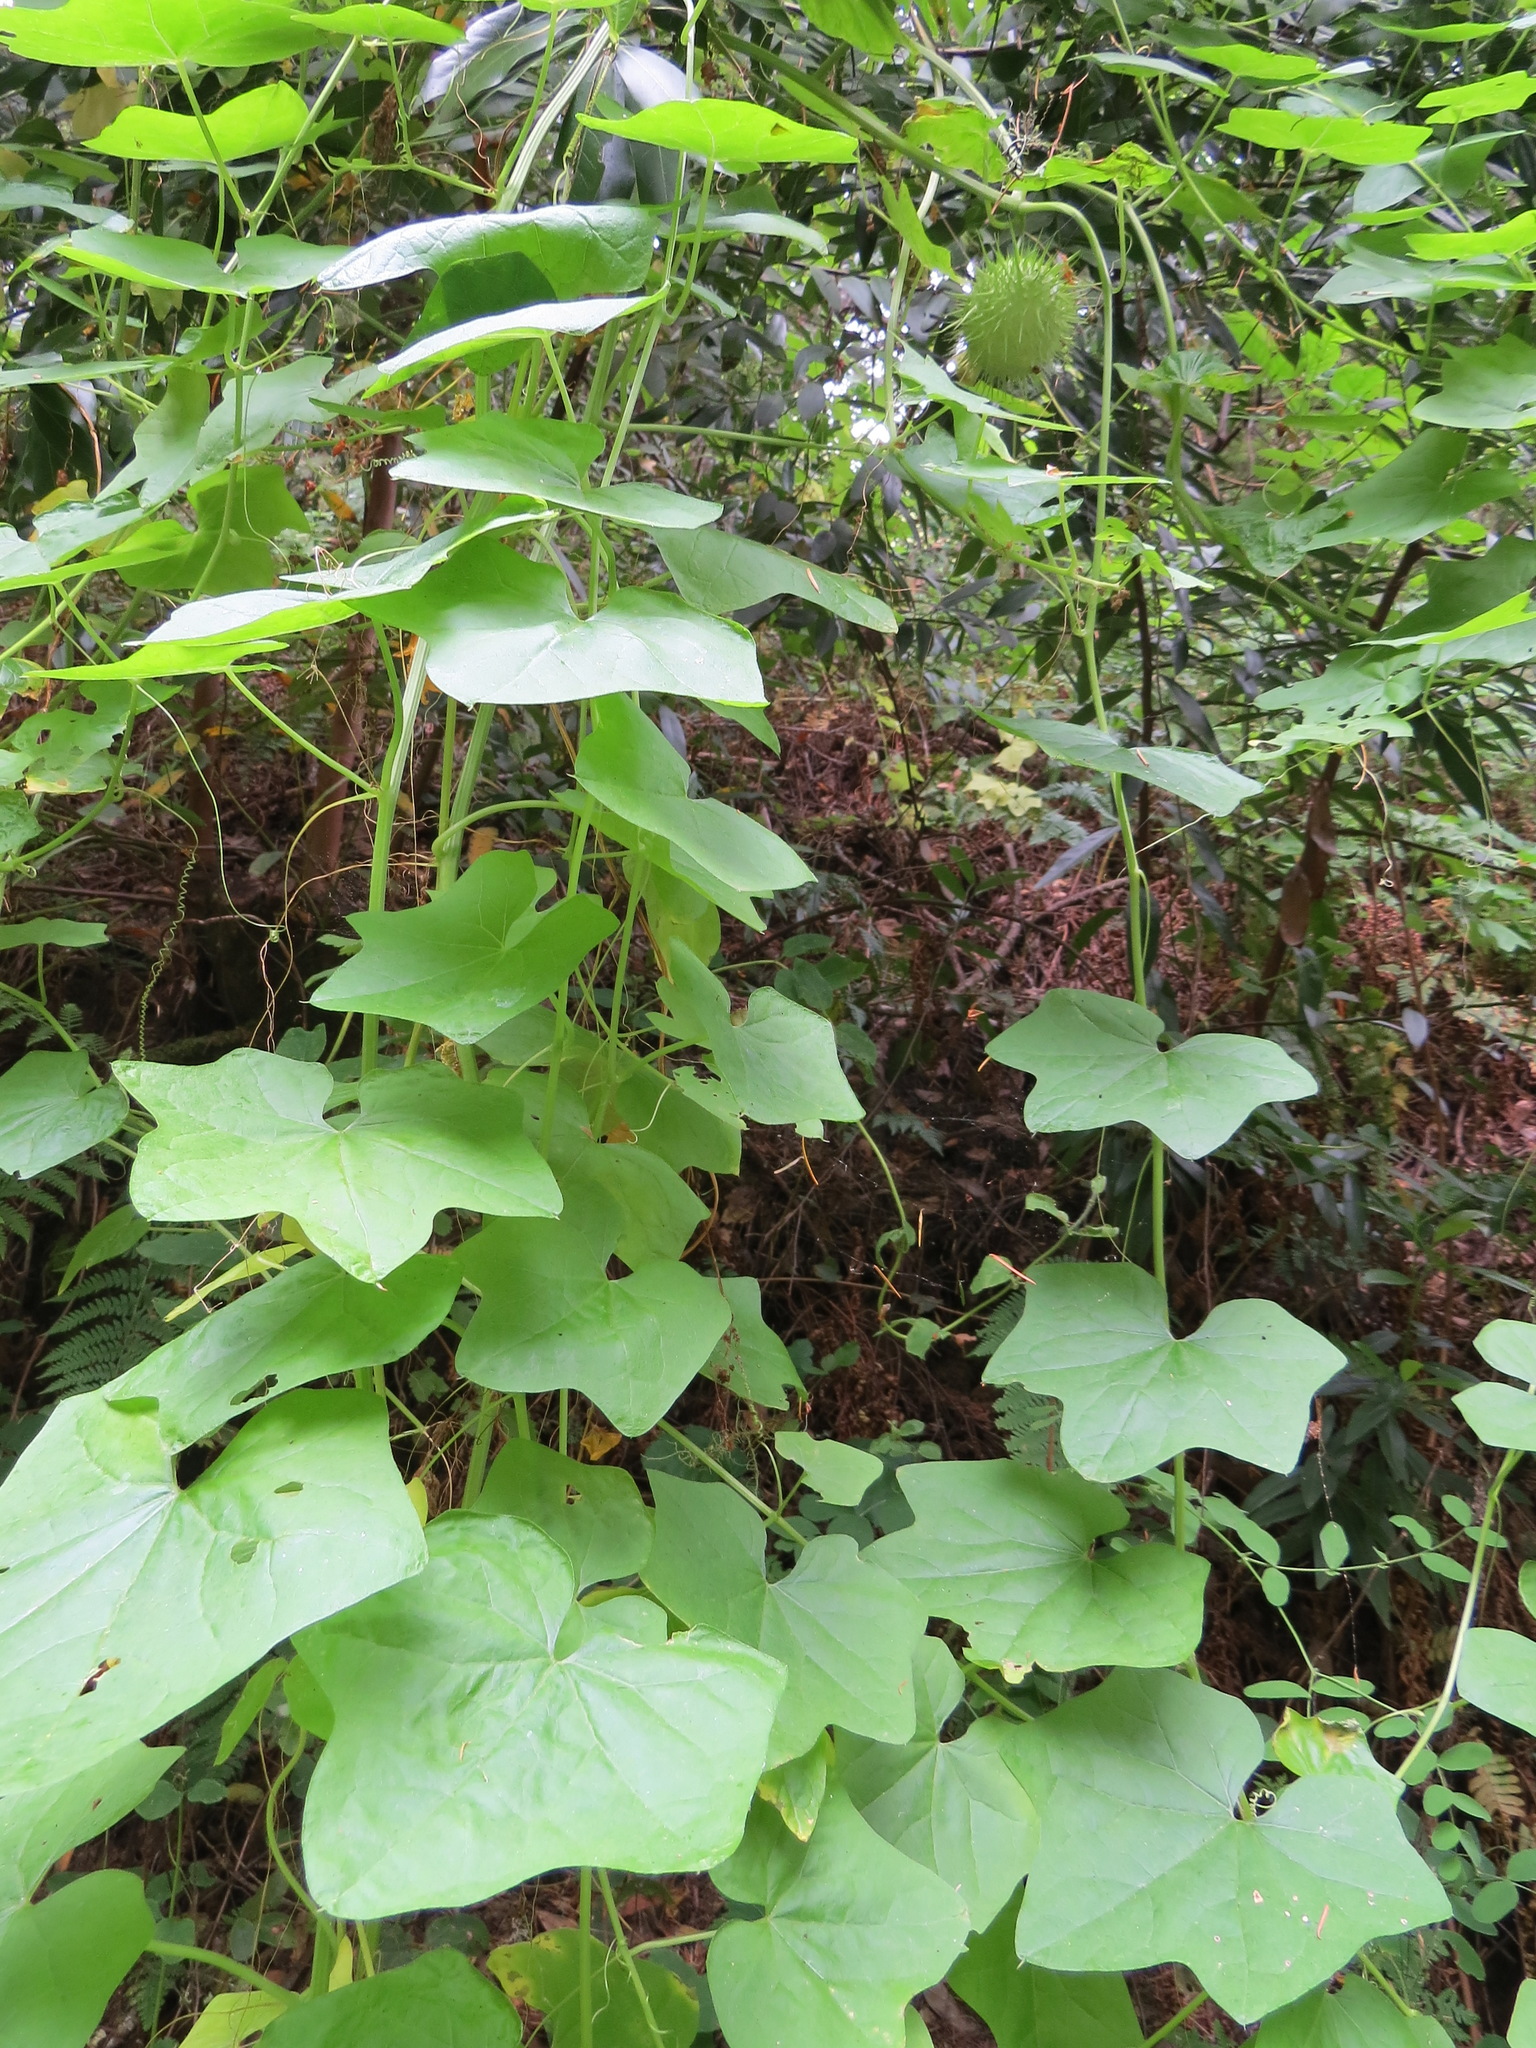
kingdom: Plantae
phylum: Tracheophyta
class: Magnoliopsida
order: Cucurbitales
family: Cucurbitaceae
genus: Marah
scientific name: Marah fabacea
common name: California manroot
